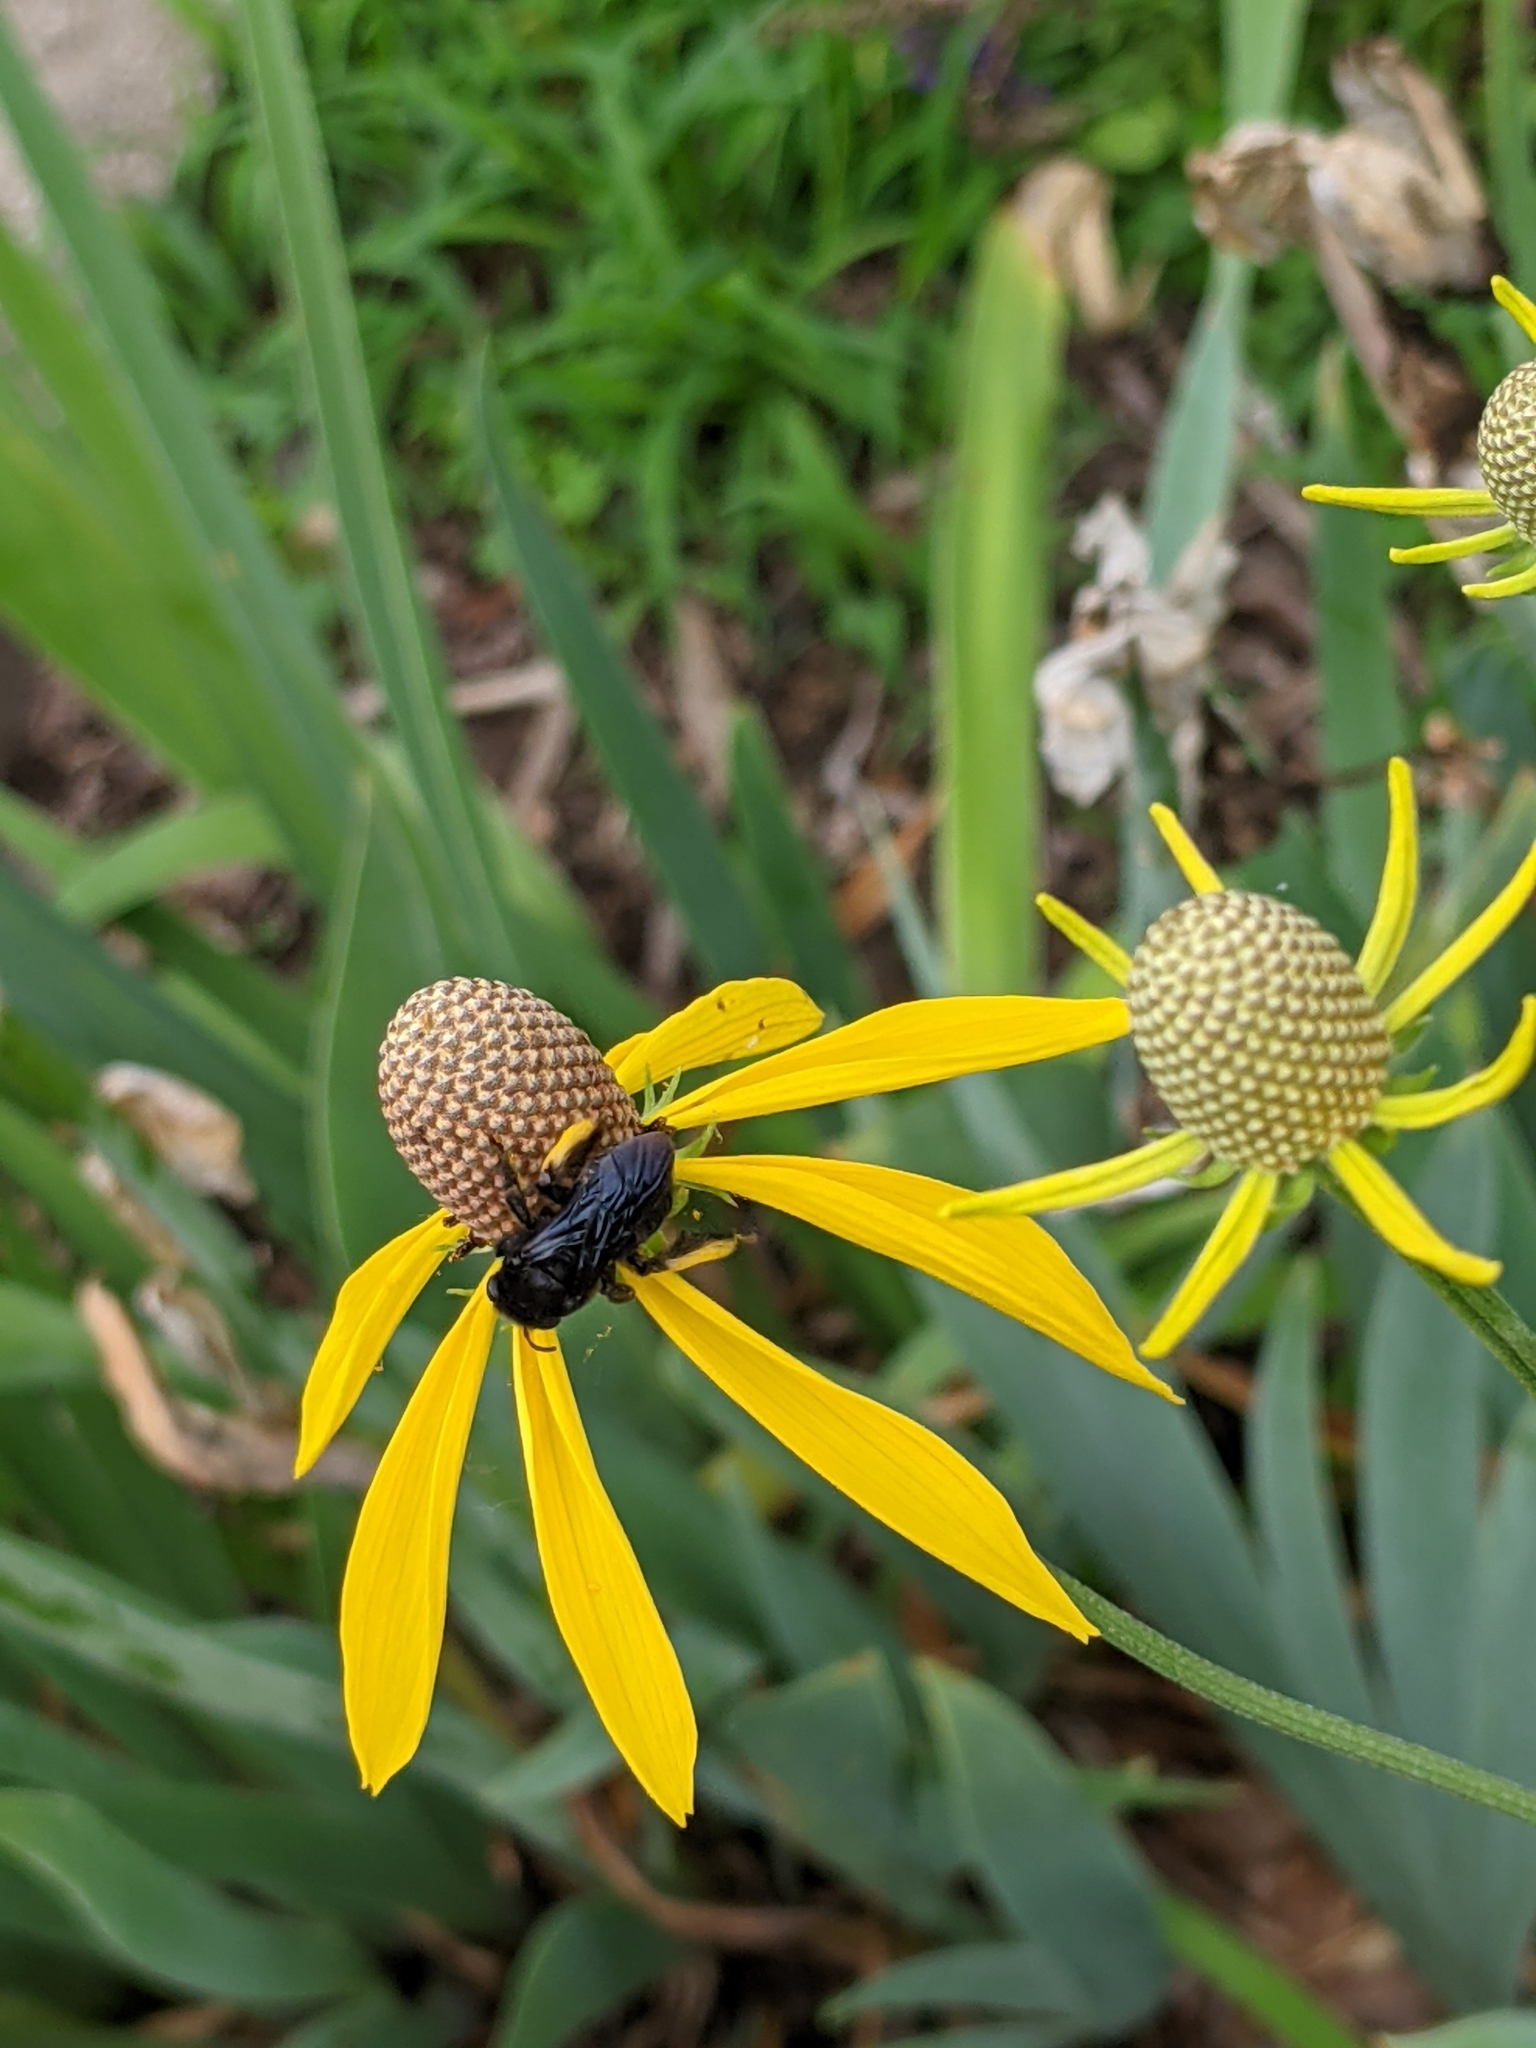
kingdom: Animalia
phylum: Arthropoda
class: Insecta
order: Hymenoptera
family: Apidae
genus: Melissodes
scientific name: Melissodes bimaculatus
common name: Two-spotted long-horned bee
